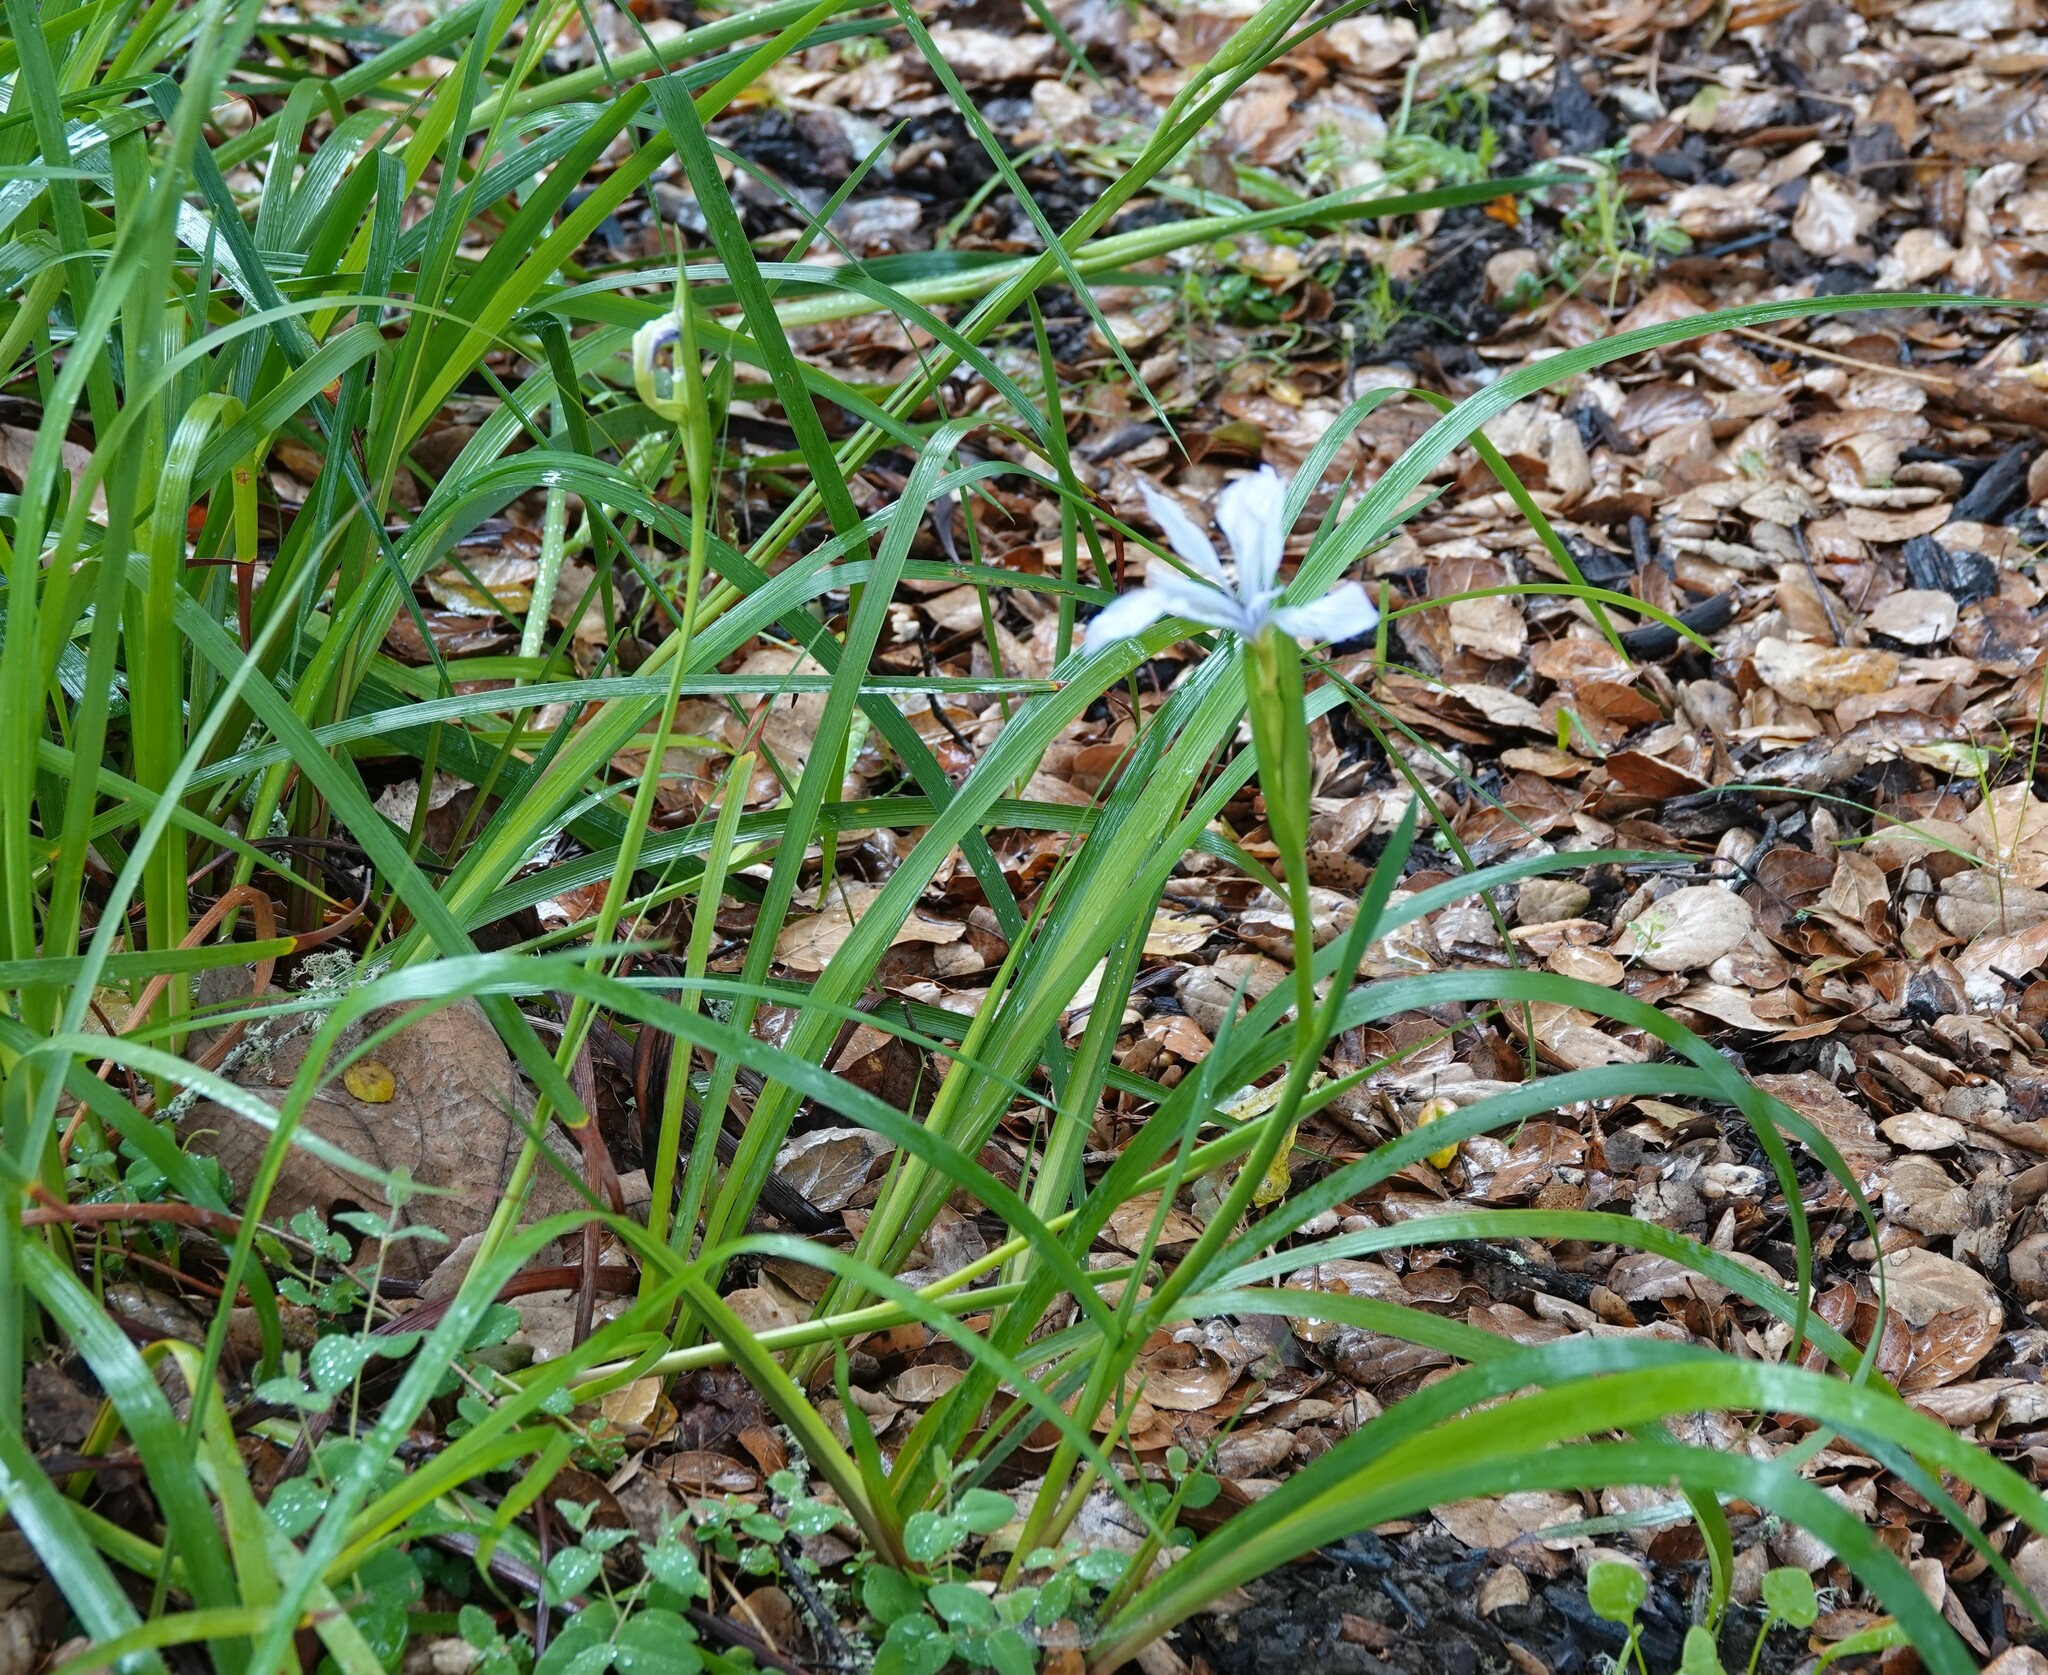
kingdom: Plantae
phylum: Tracheophyta
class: Liliopsida
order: Asparagales
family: Iridaceae
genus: Iris
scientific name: Iris douglasiana
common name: Marin iris
